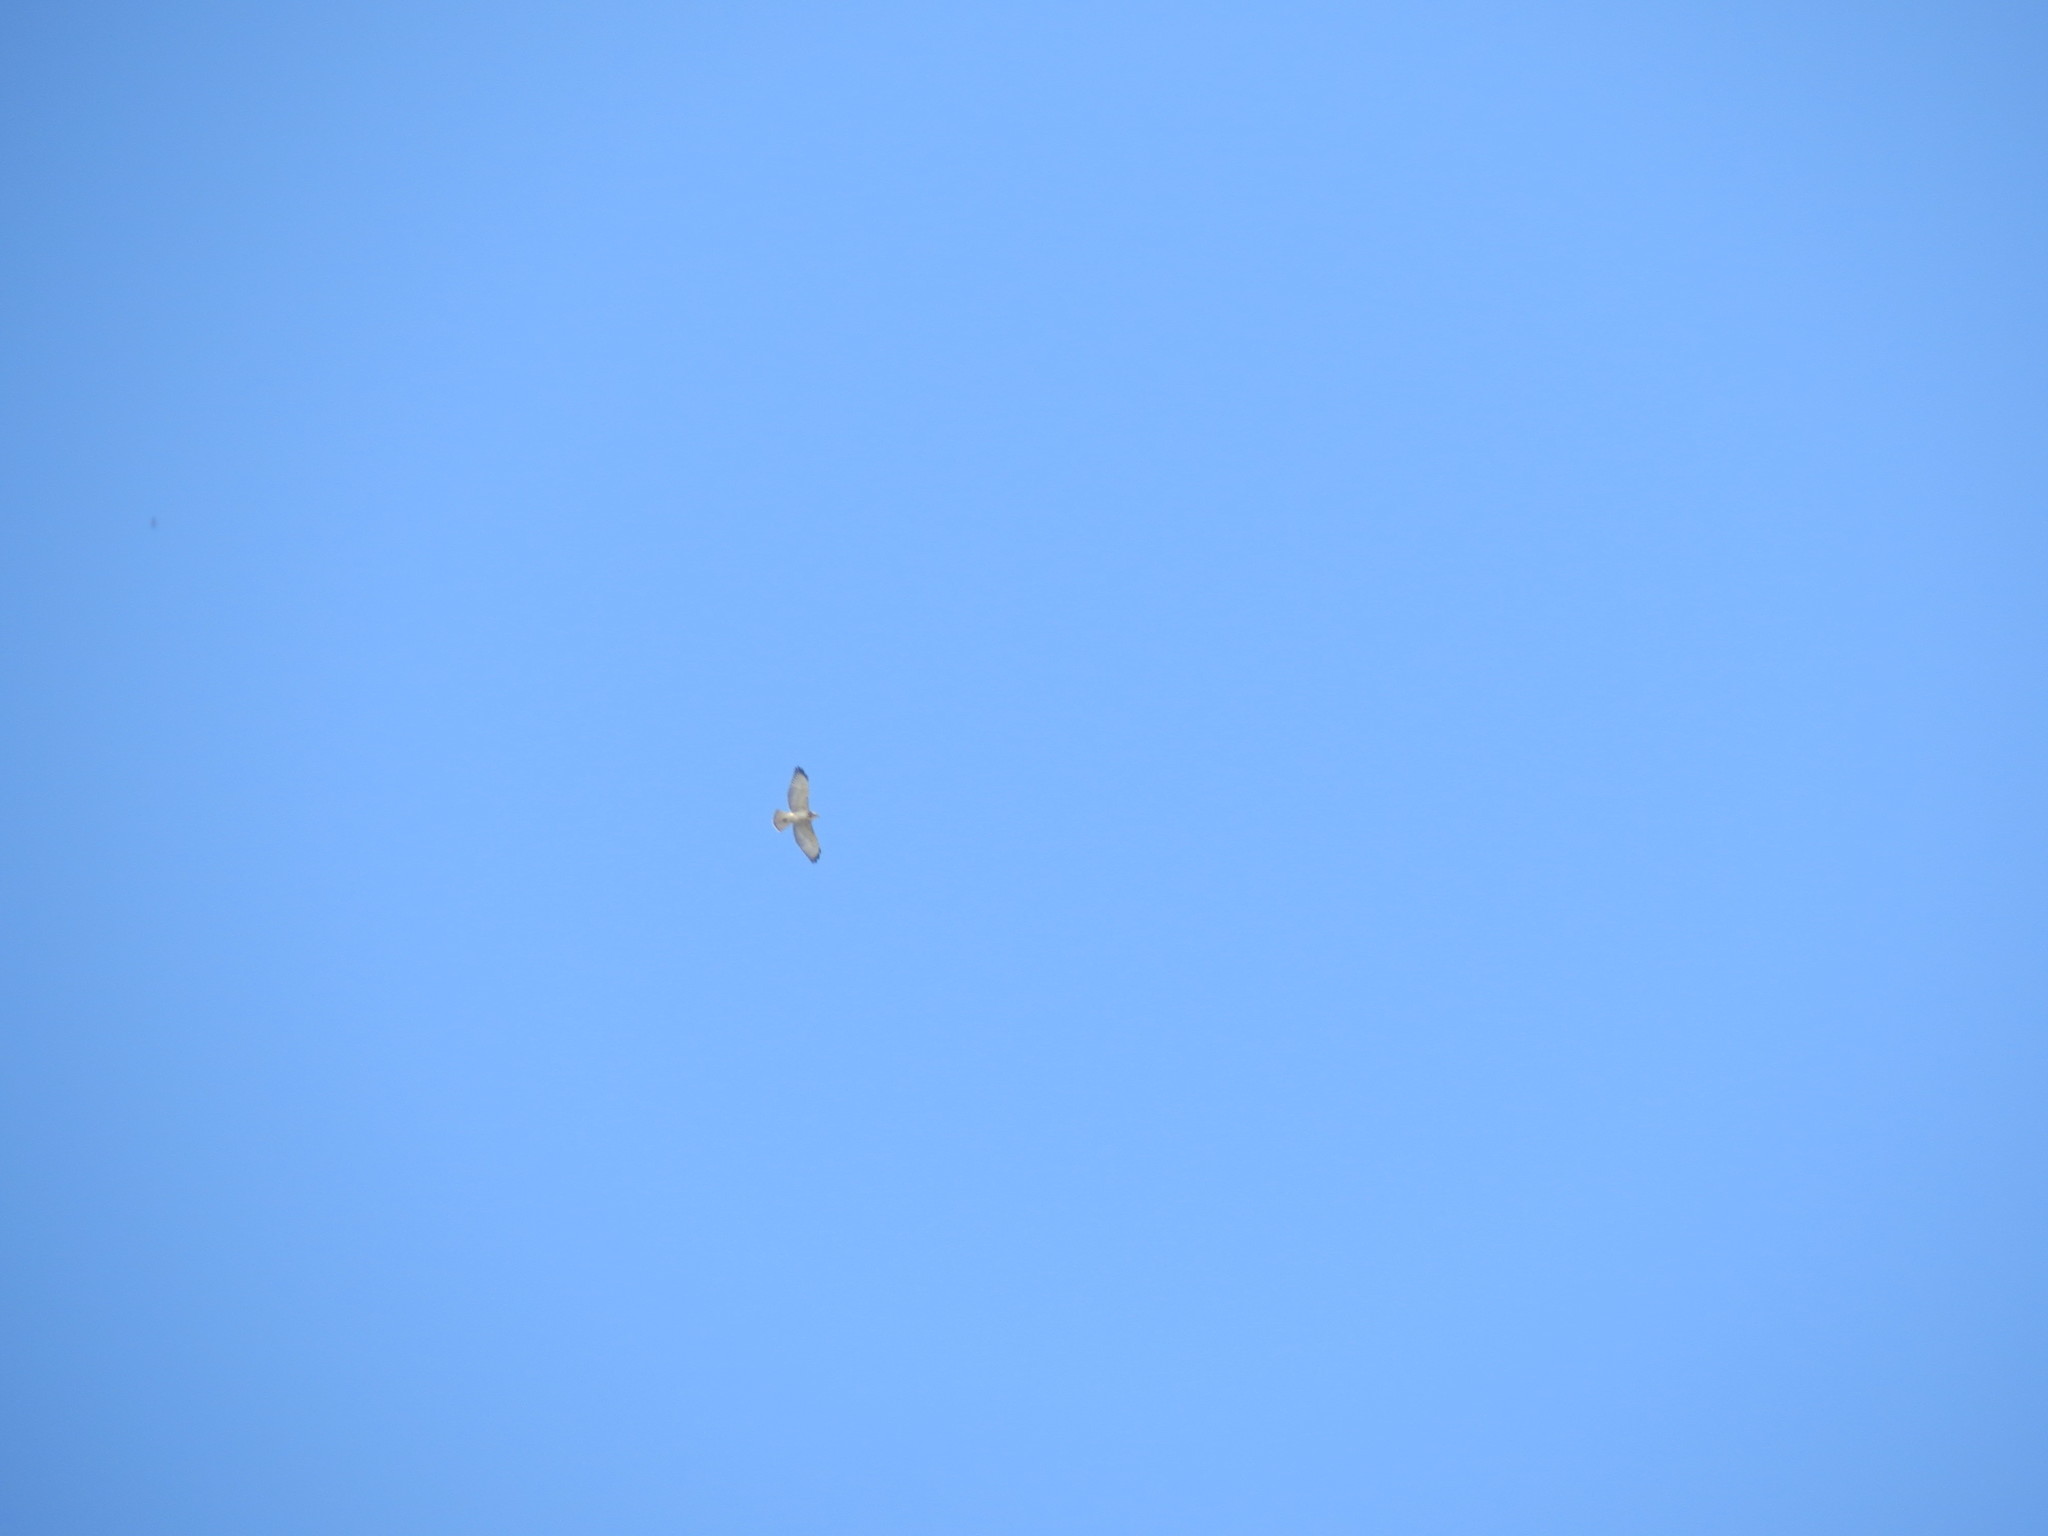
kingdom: Animalia
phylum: Chordata
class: Aves
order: Accipitriformes
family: Accipitridae
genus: Buteo
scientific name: Buteo brachyurus
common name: Short-tailed hawk
